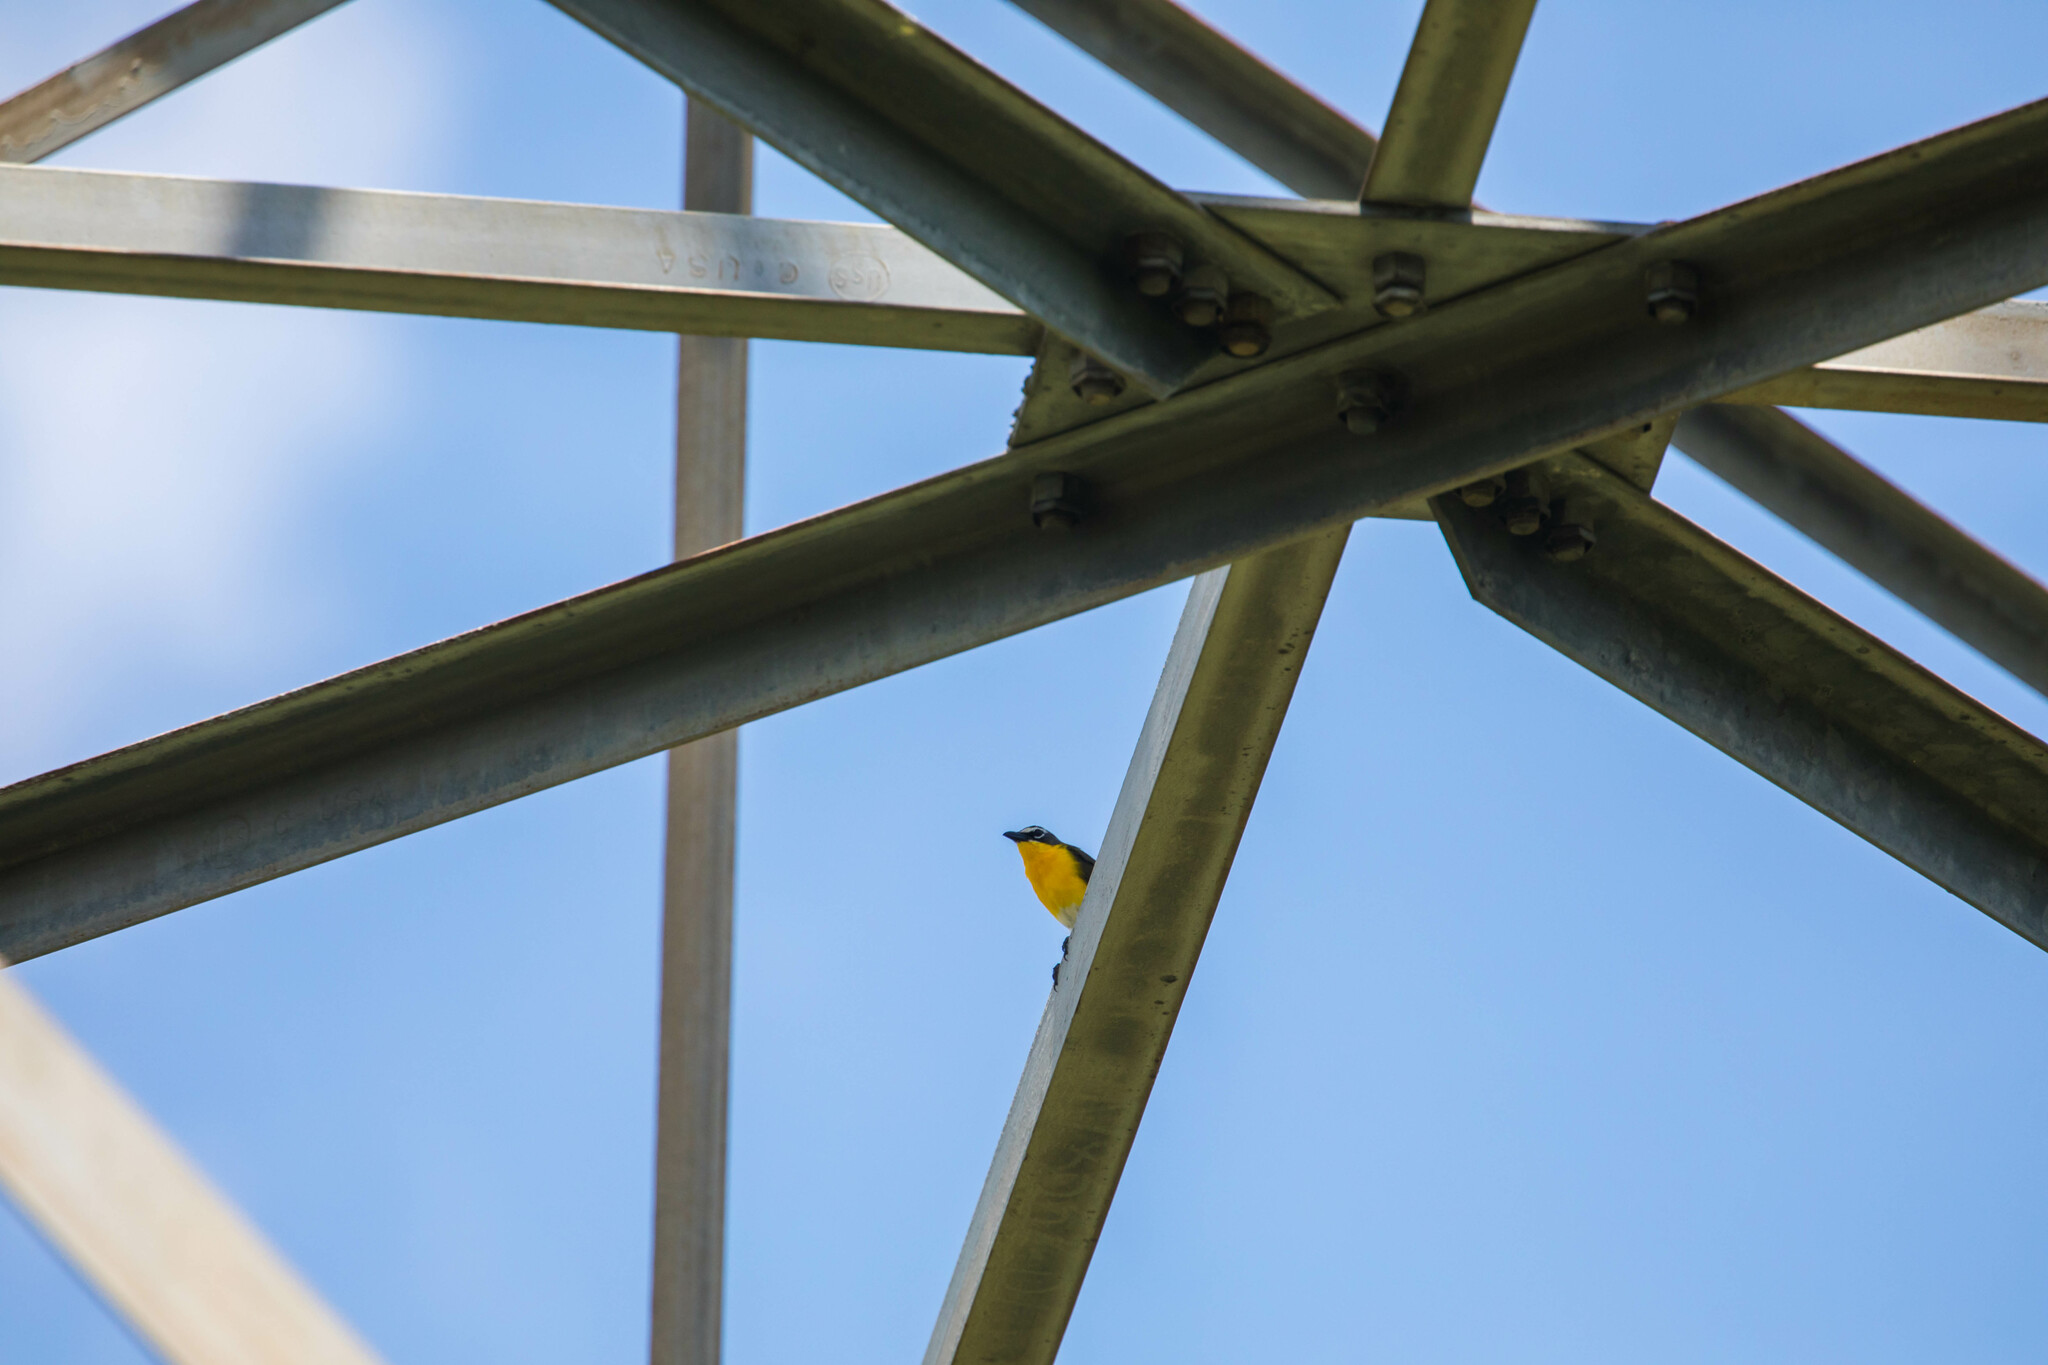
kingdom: Animalia
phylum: Chordata
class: Aves
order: Passeriformes
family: Parulidae
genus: Icteria
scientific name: Icteria virens
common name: Yellow-breasted chat
